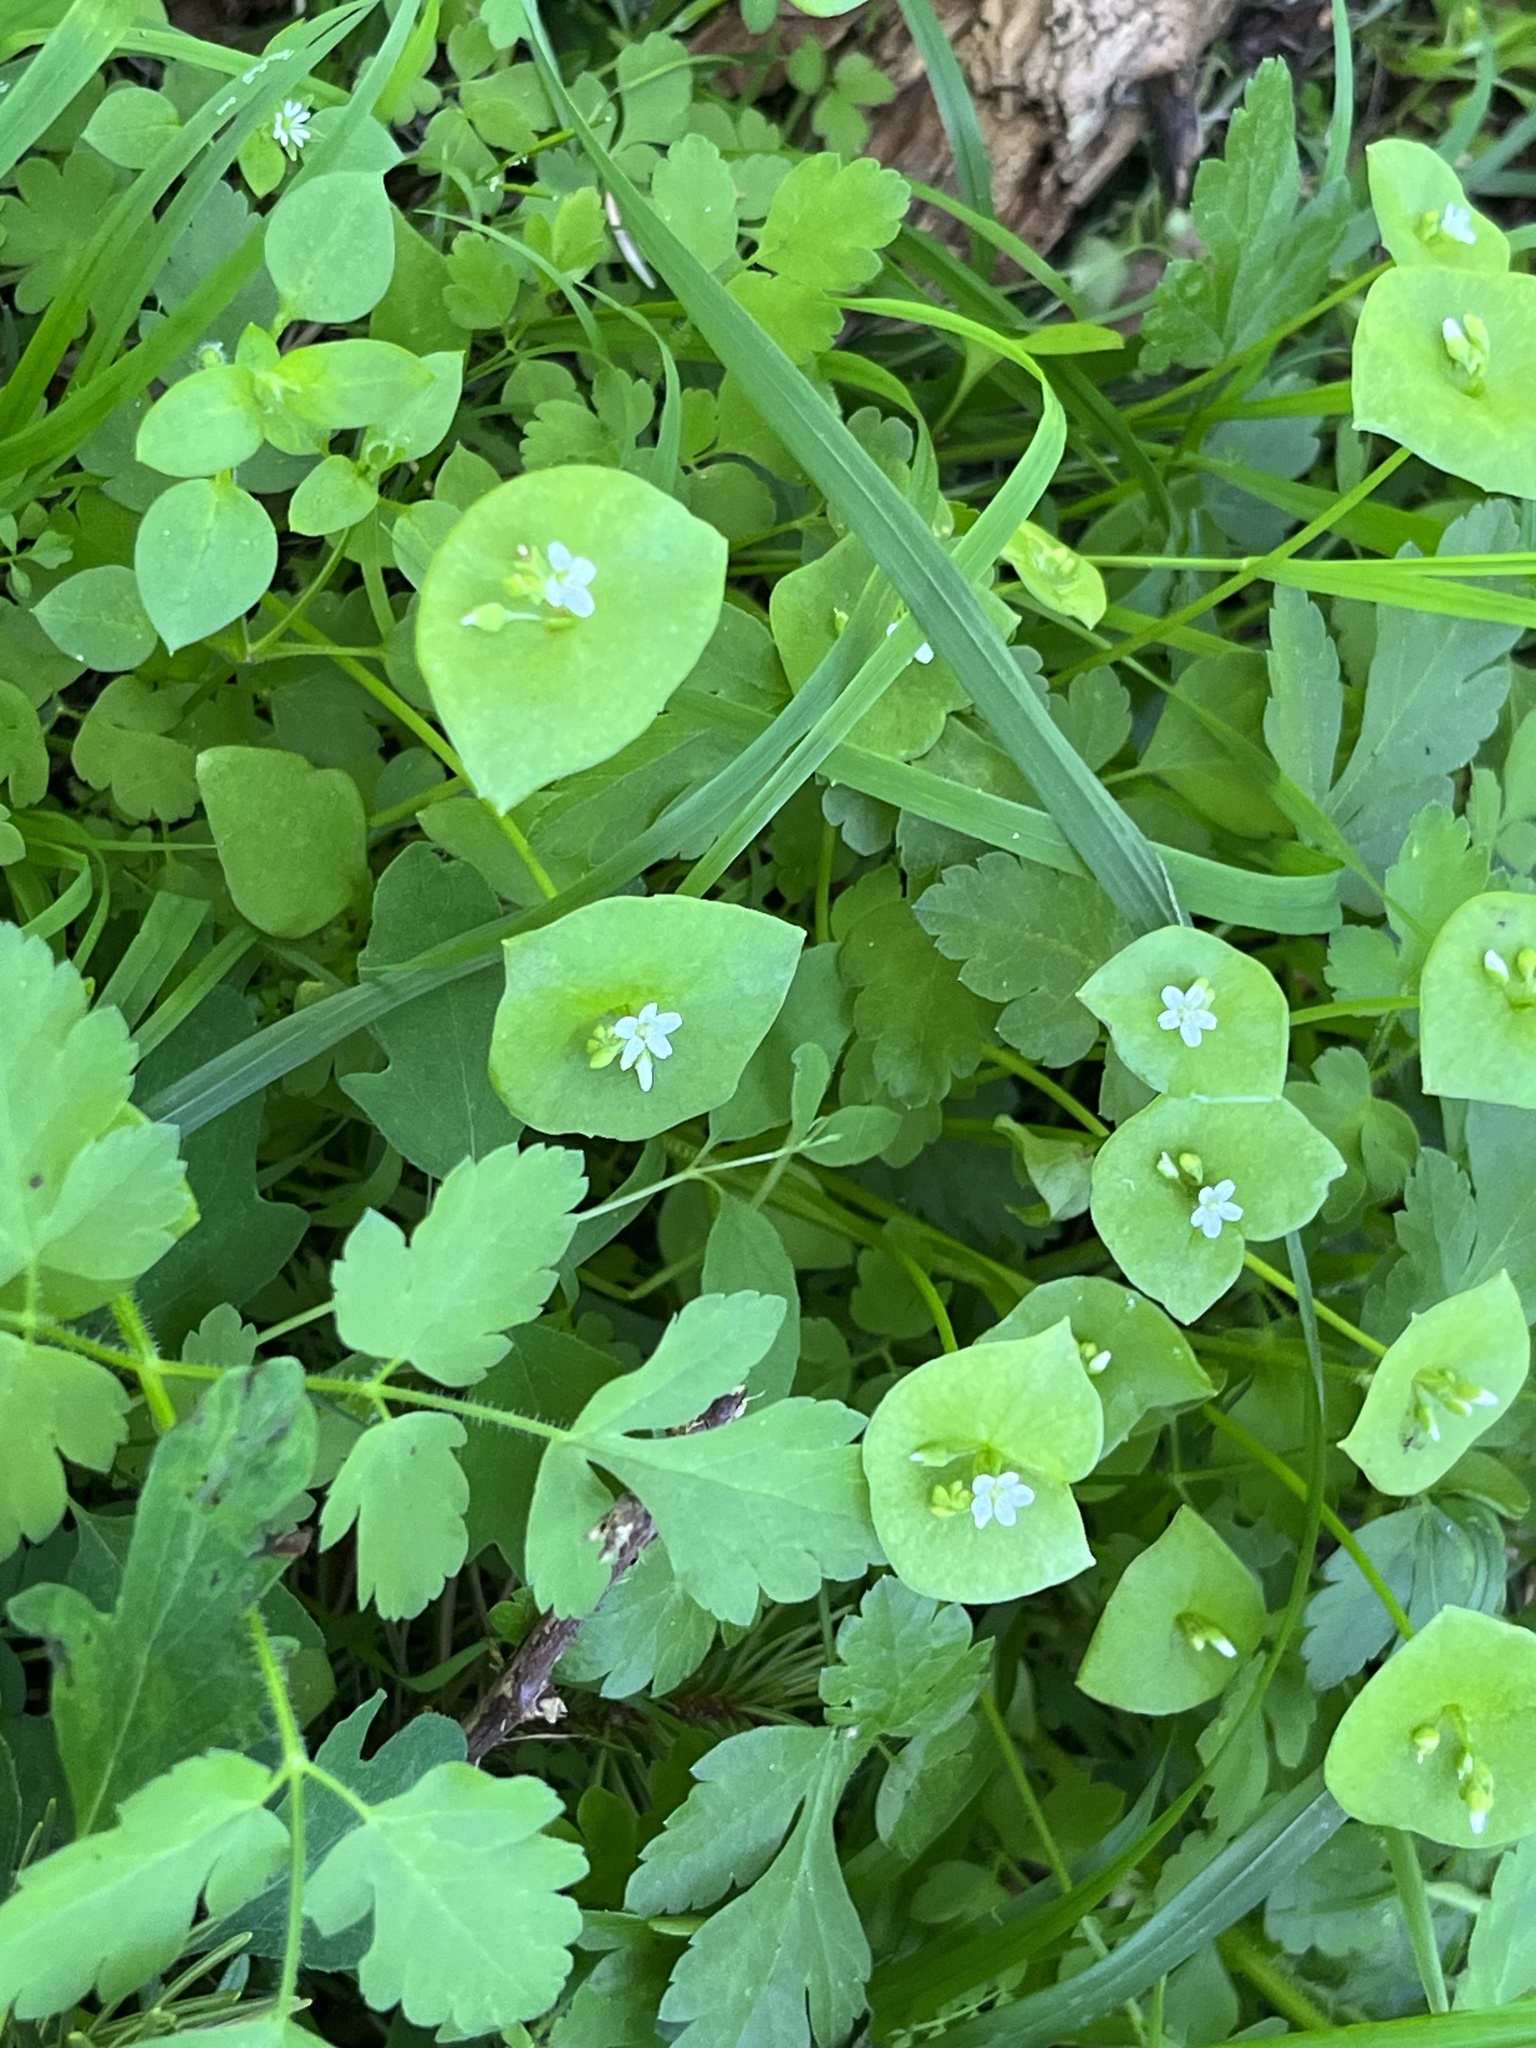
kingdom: Plantae
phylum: Tracheophyta
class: Magnoliopsida
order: Caryophyllales
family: Montiaceae
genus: Claytonia
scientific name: Claytonia perfoliata
